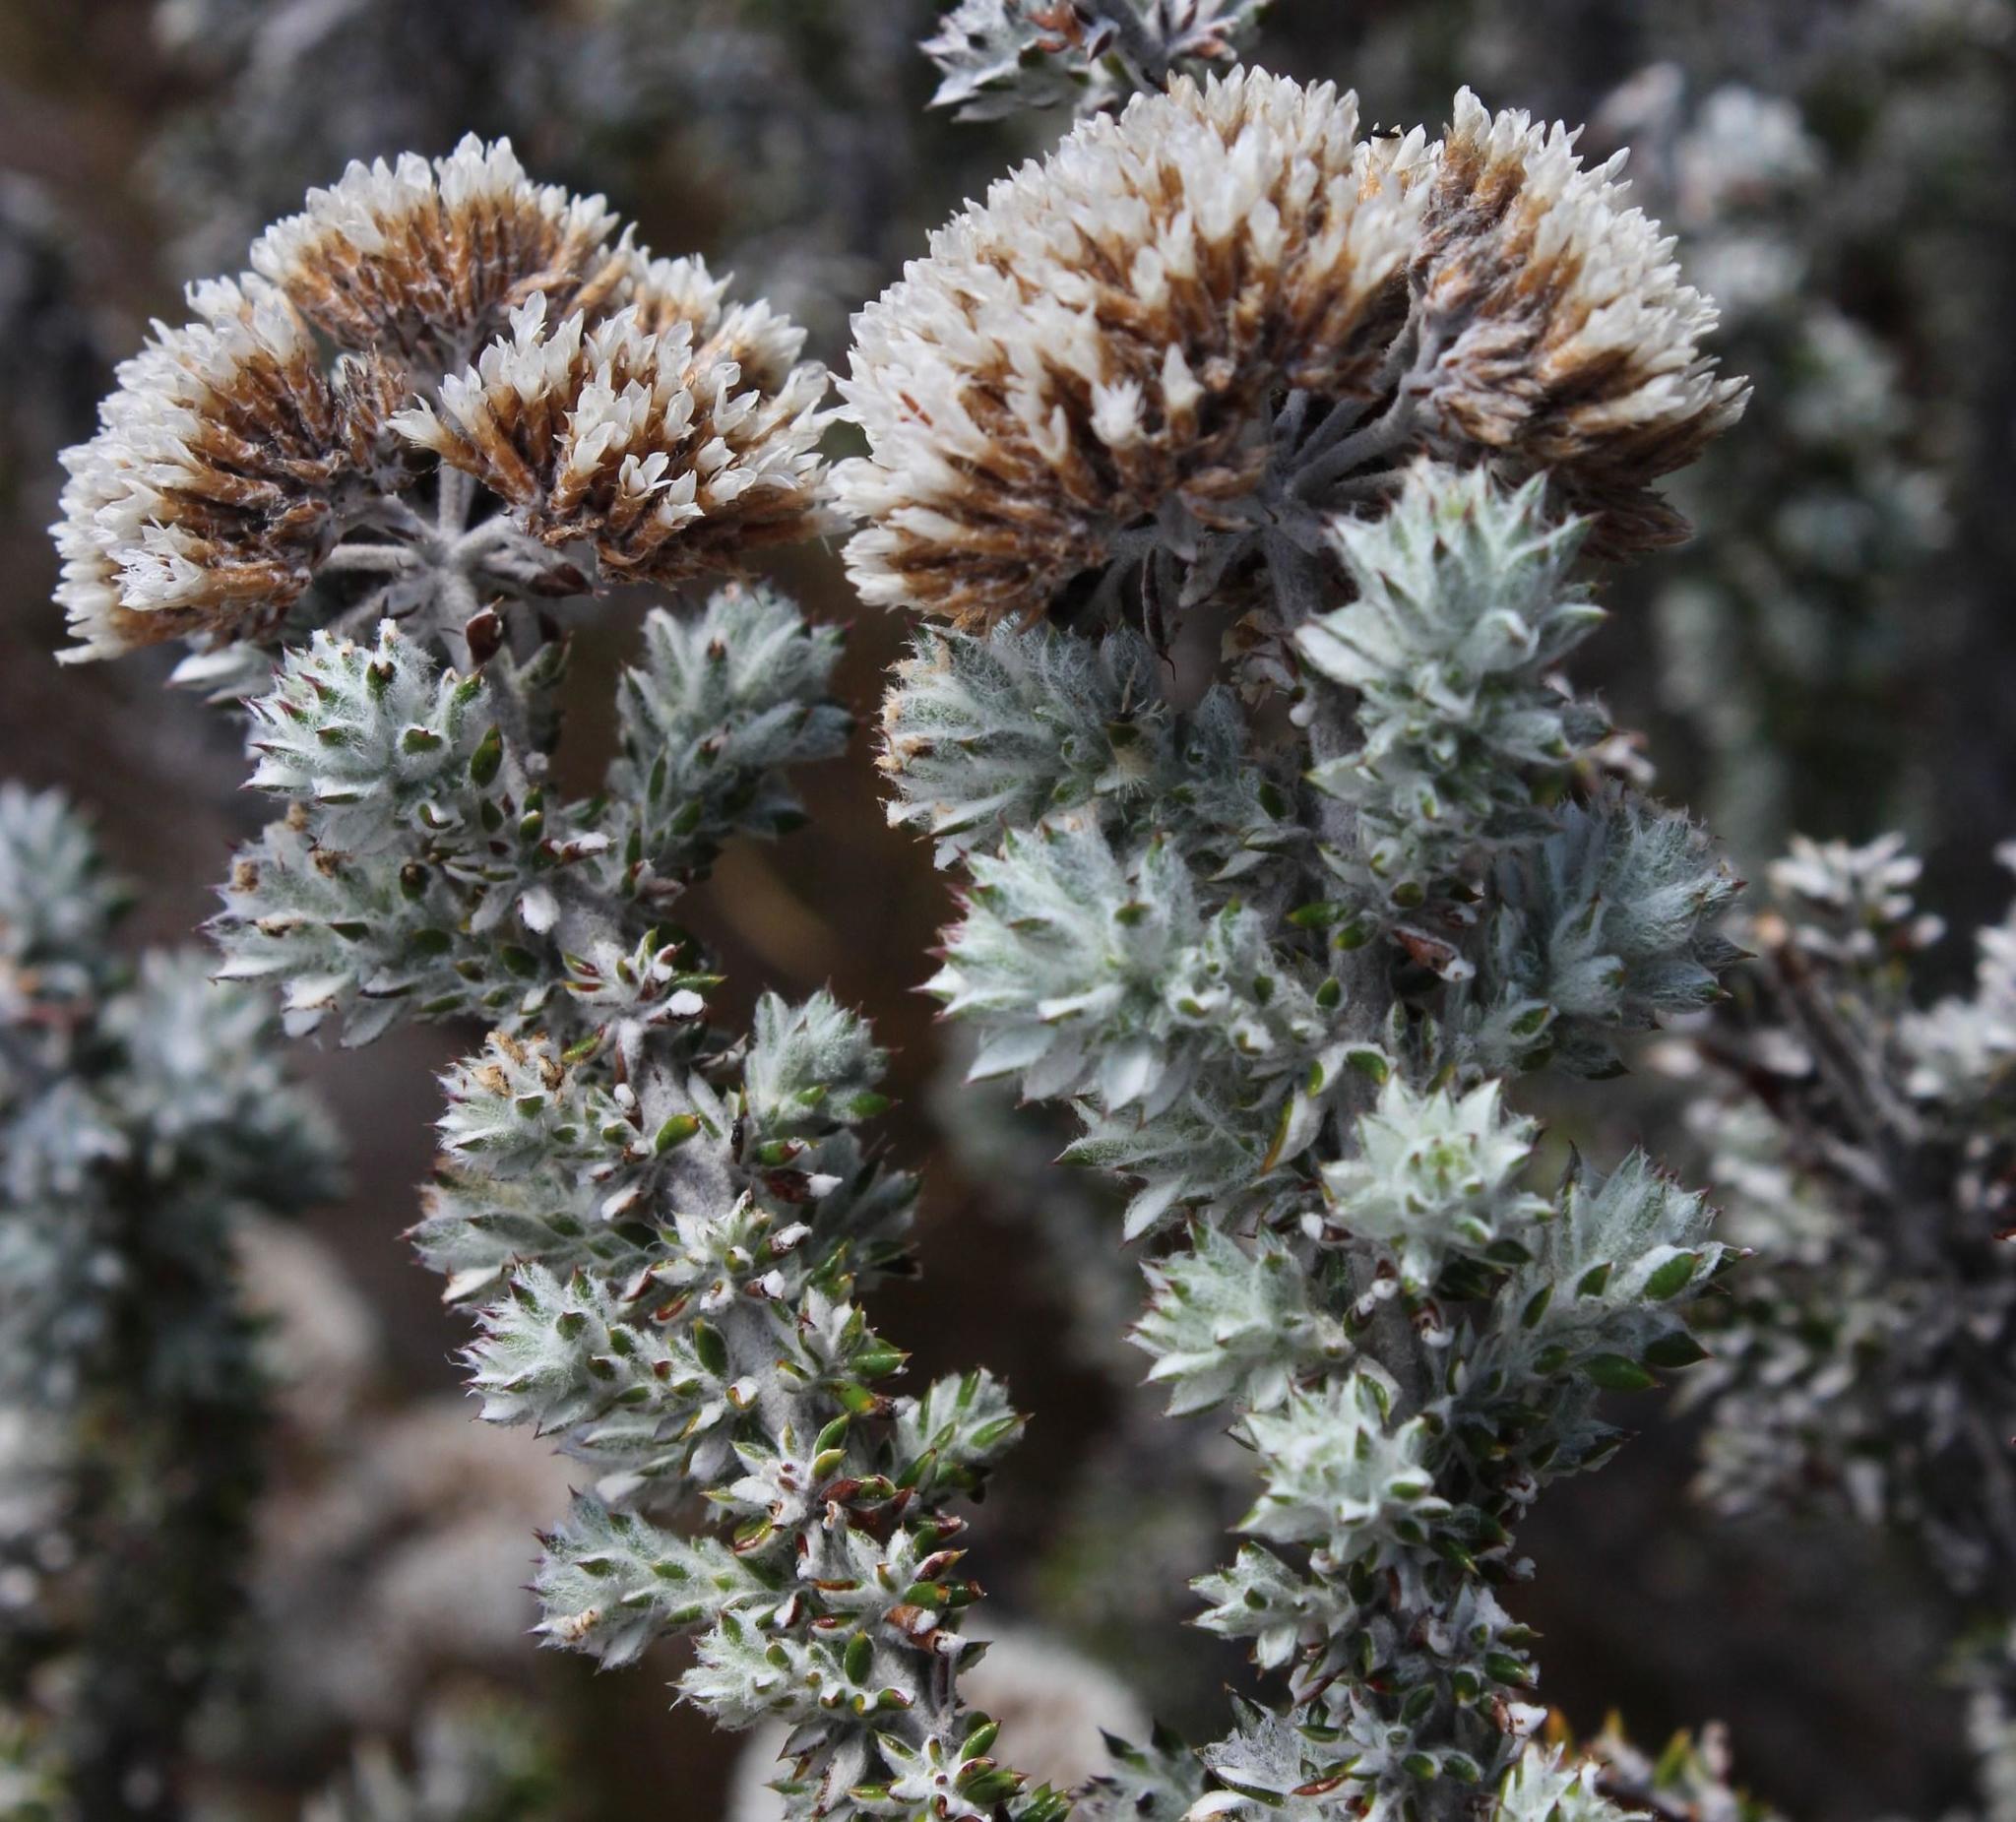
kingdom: Plantae
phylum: Tracheophyta
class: Magnoliopsida
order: Asterales
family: Asteraceae
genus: Metalasia
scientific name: Metalasia densa
